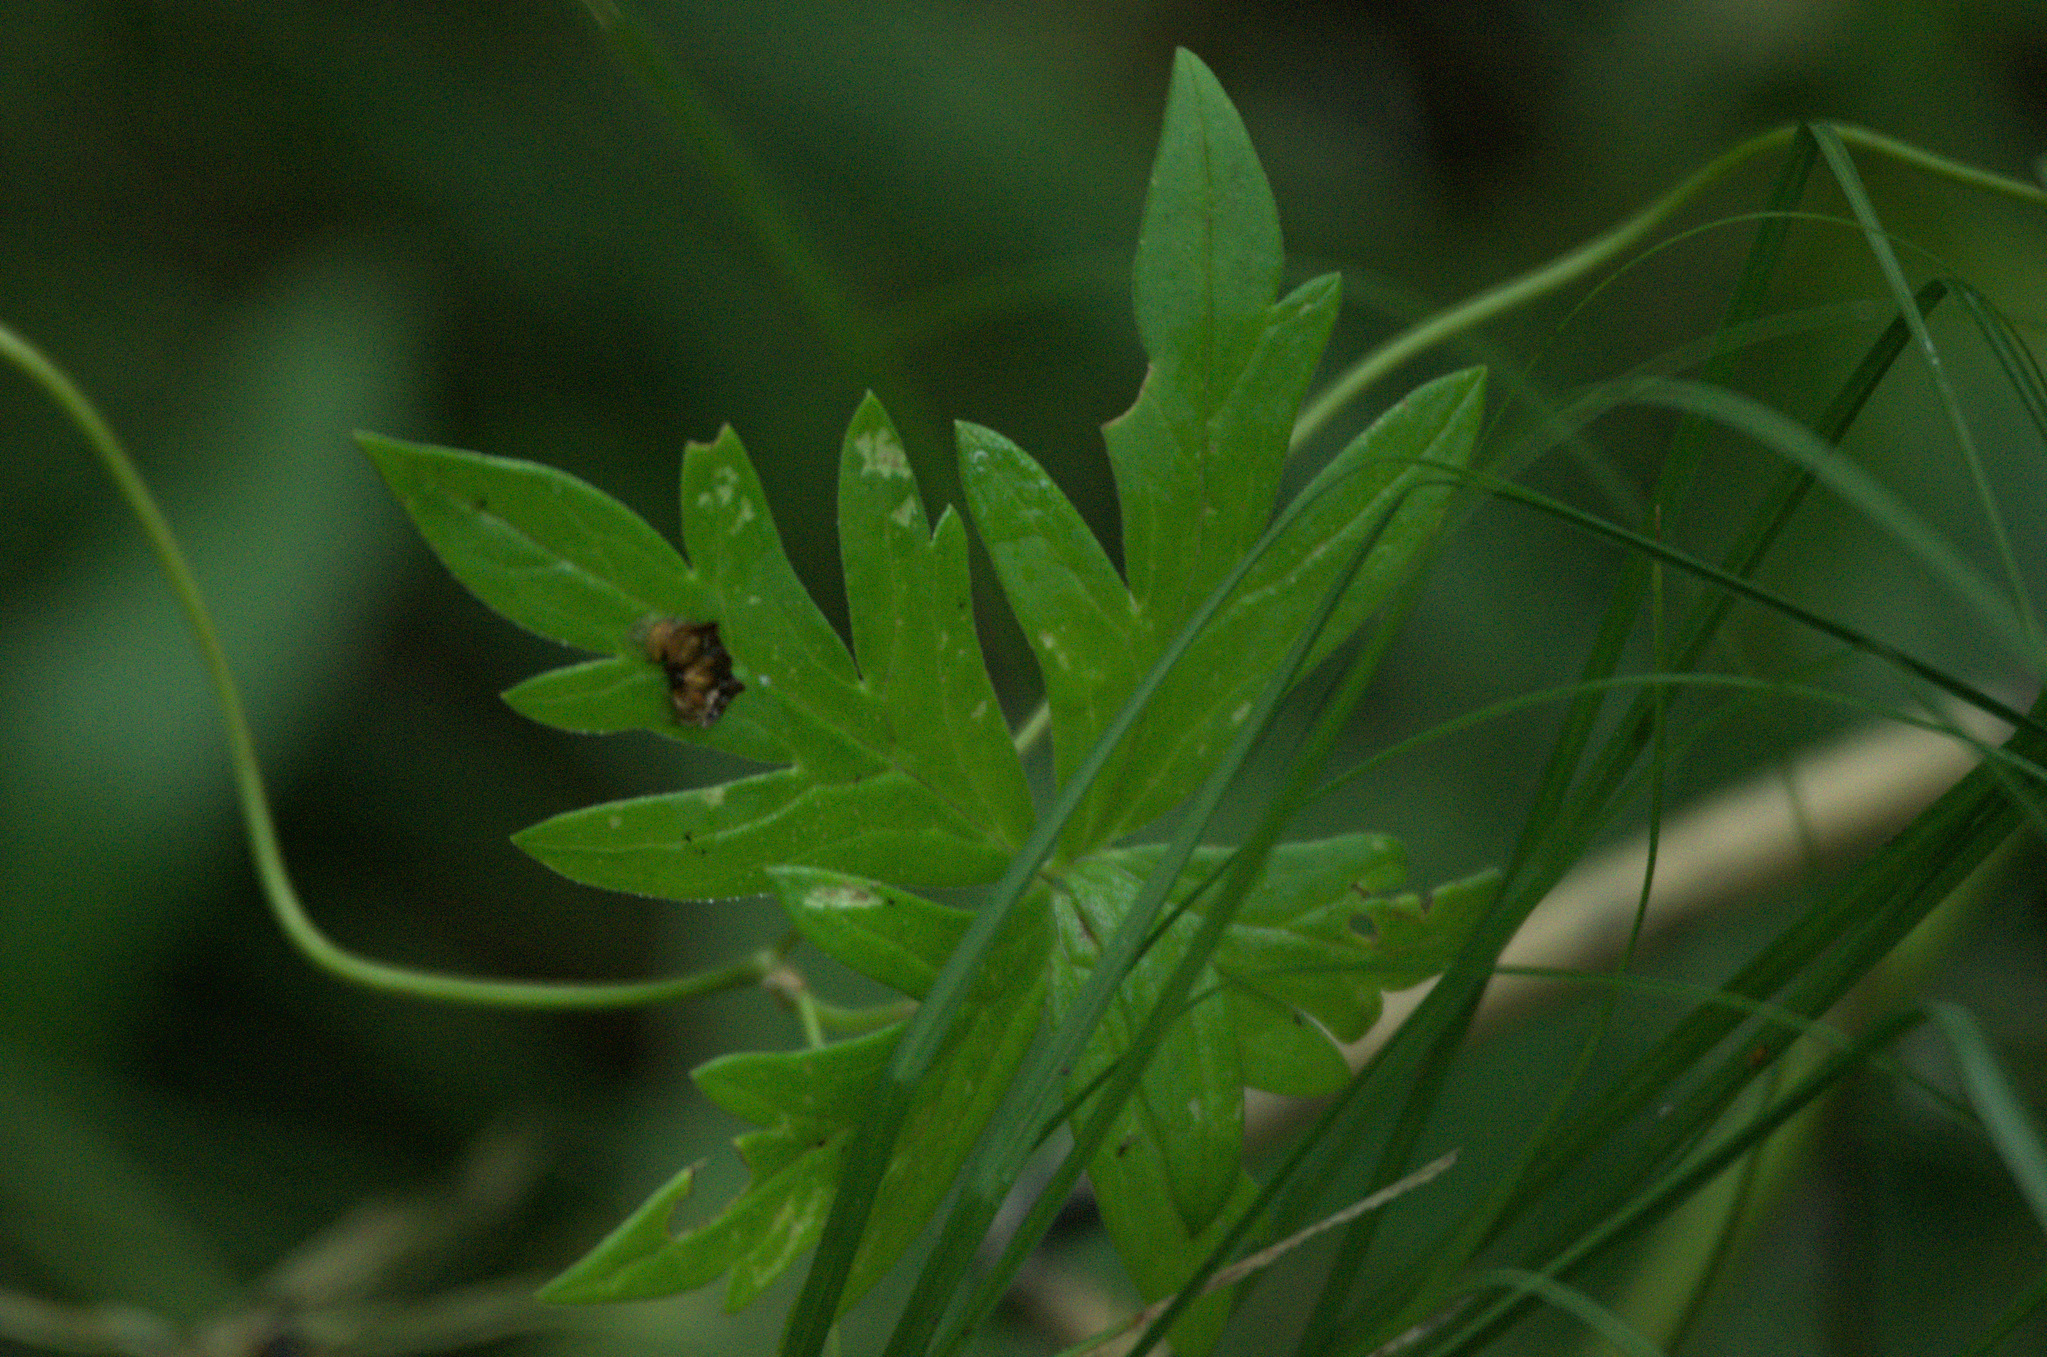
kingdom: Plantae
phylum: Tracheophyta
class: Magnoliopsida
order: Ranunculales
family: Ranunculaceae
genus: Aconitum
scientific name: Aconitum volubile
